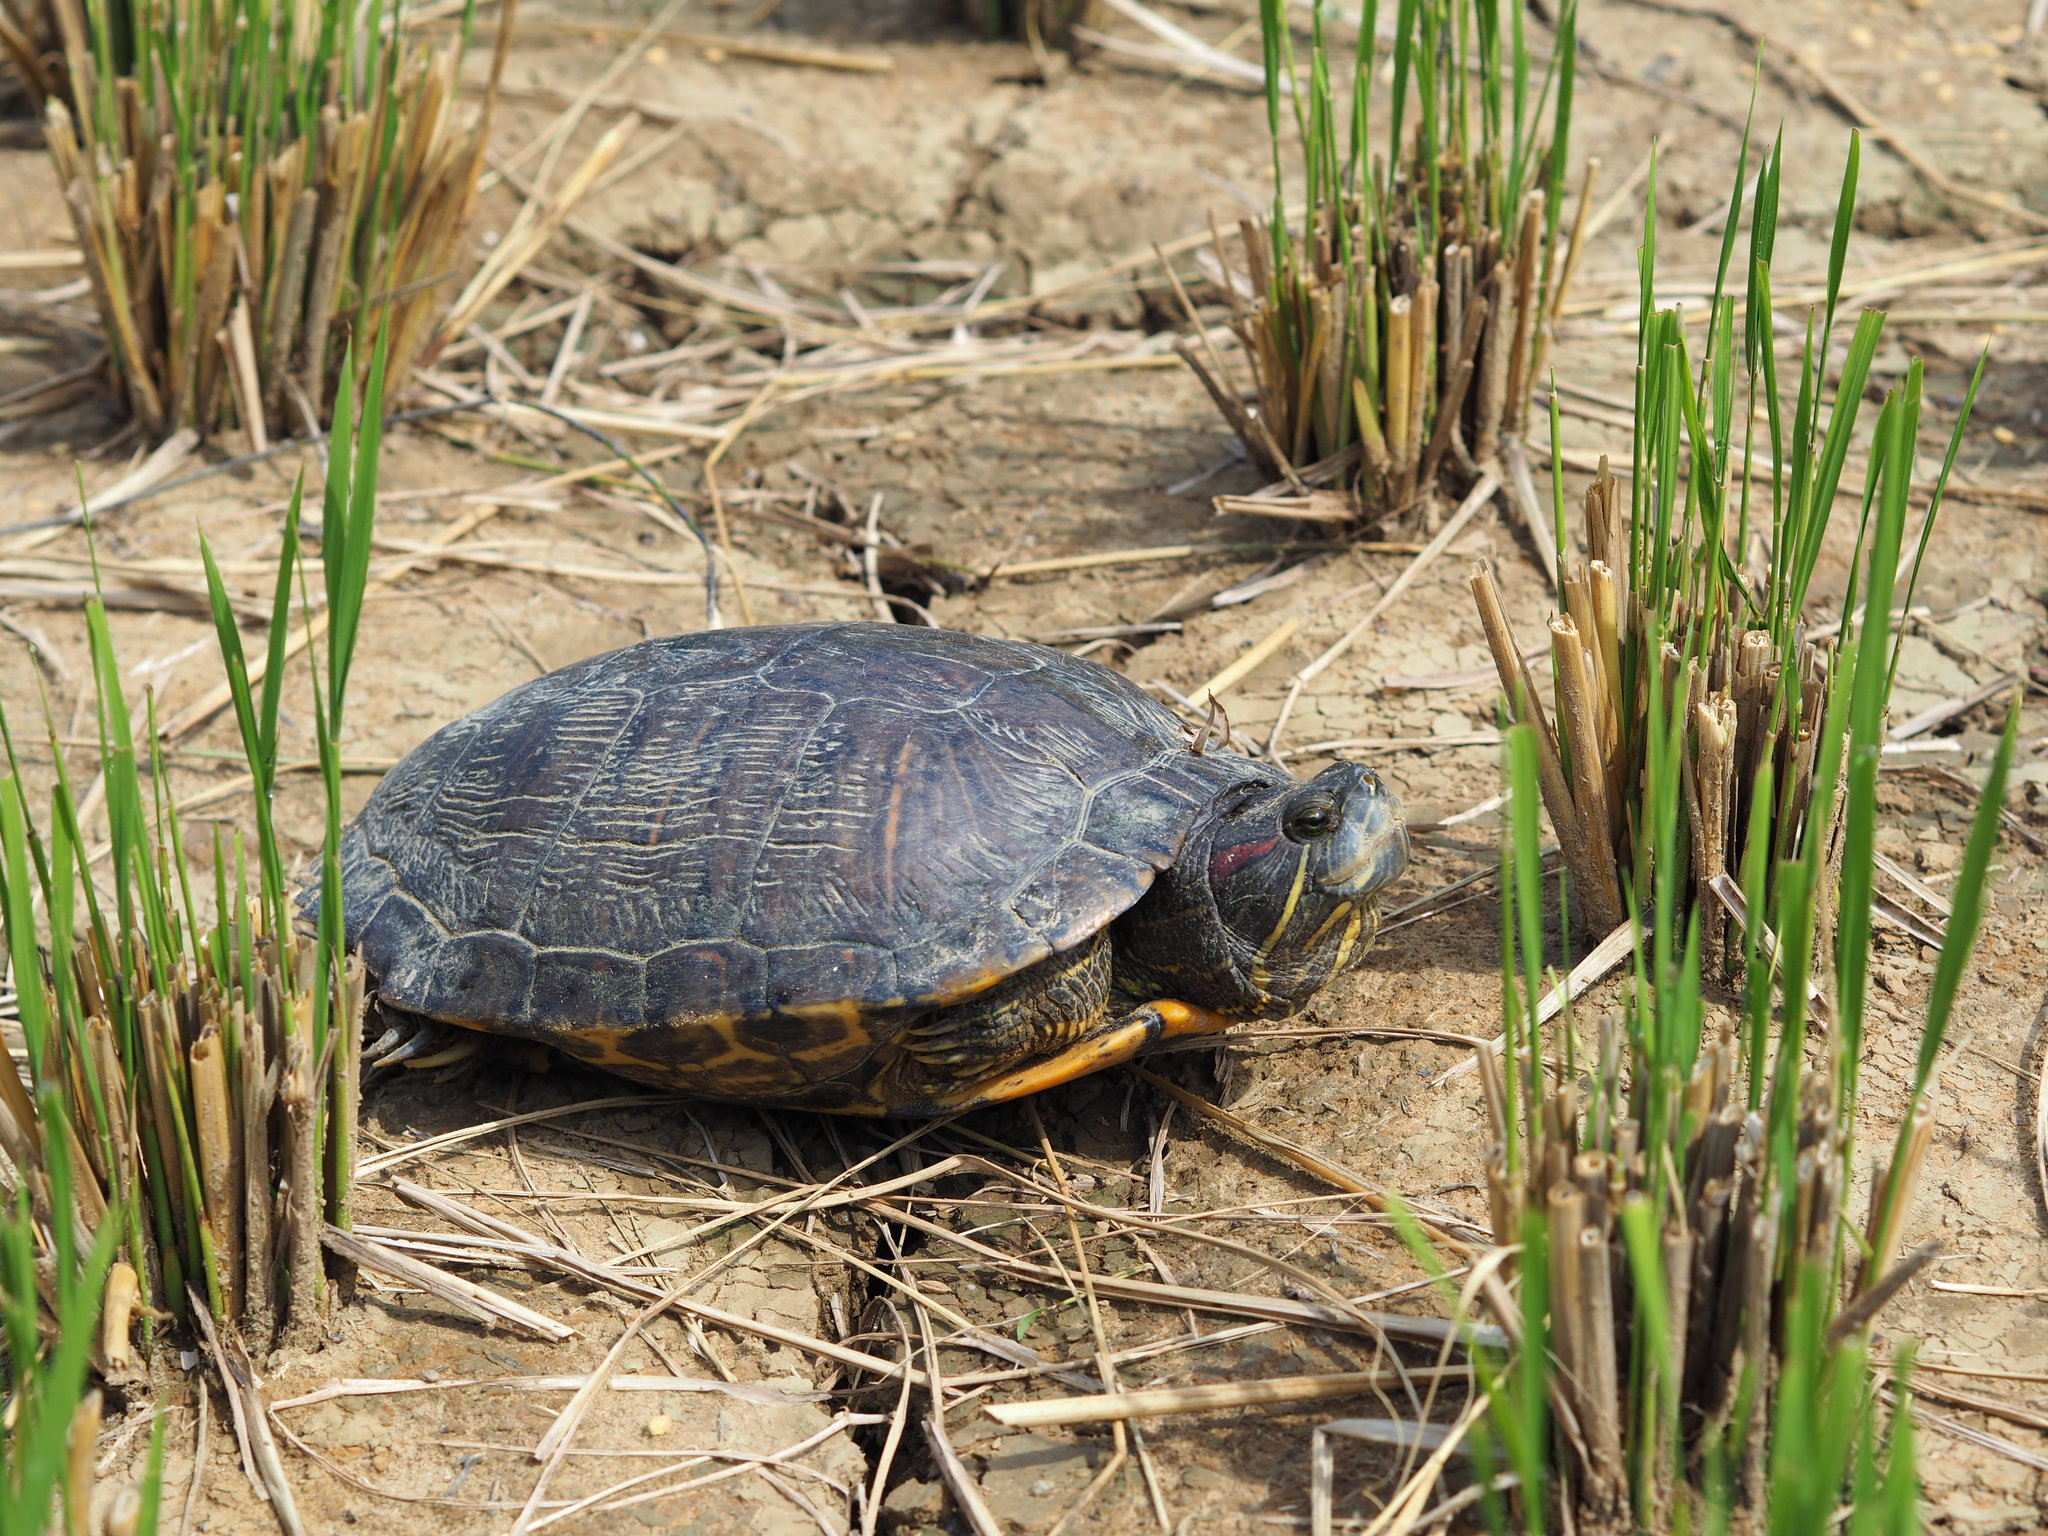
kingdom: Animalia
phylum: Chordata
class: Testudines
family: Emydidae
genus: Trachemys
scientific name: Trachemys scripta
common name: Slider
